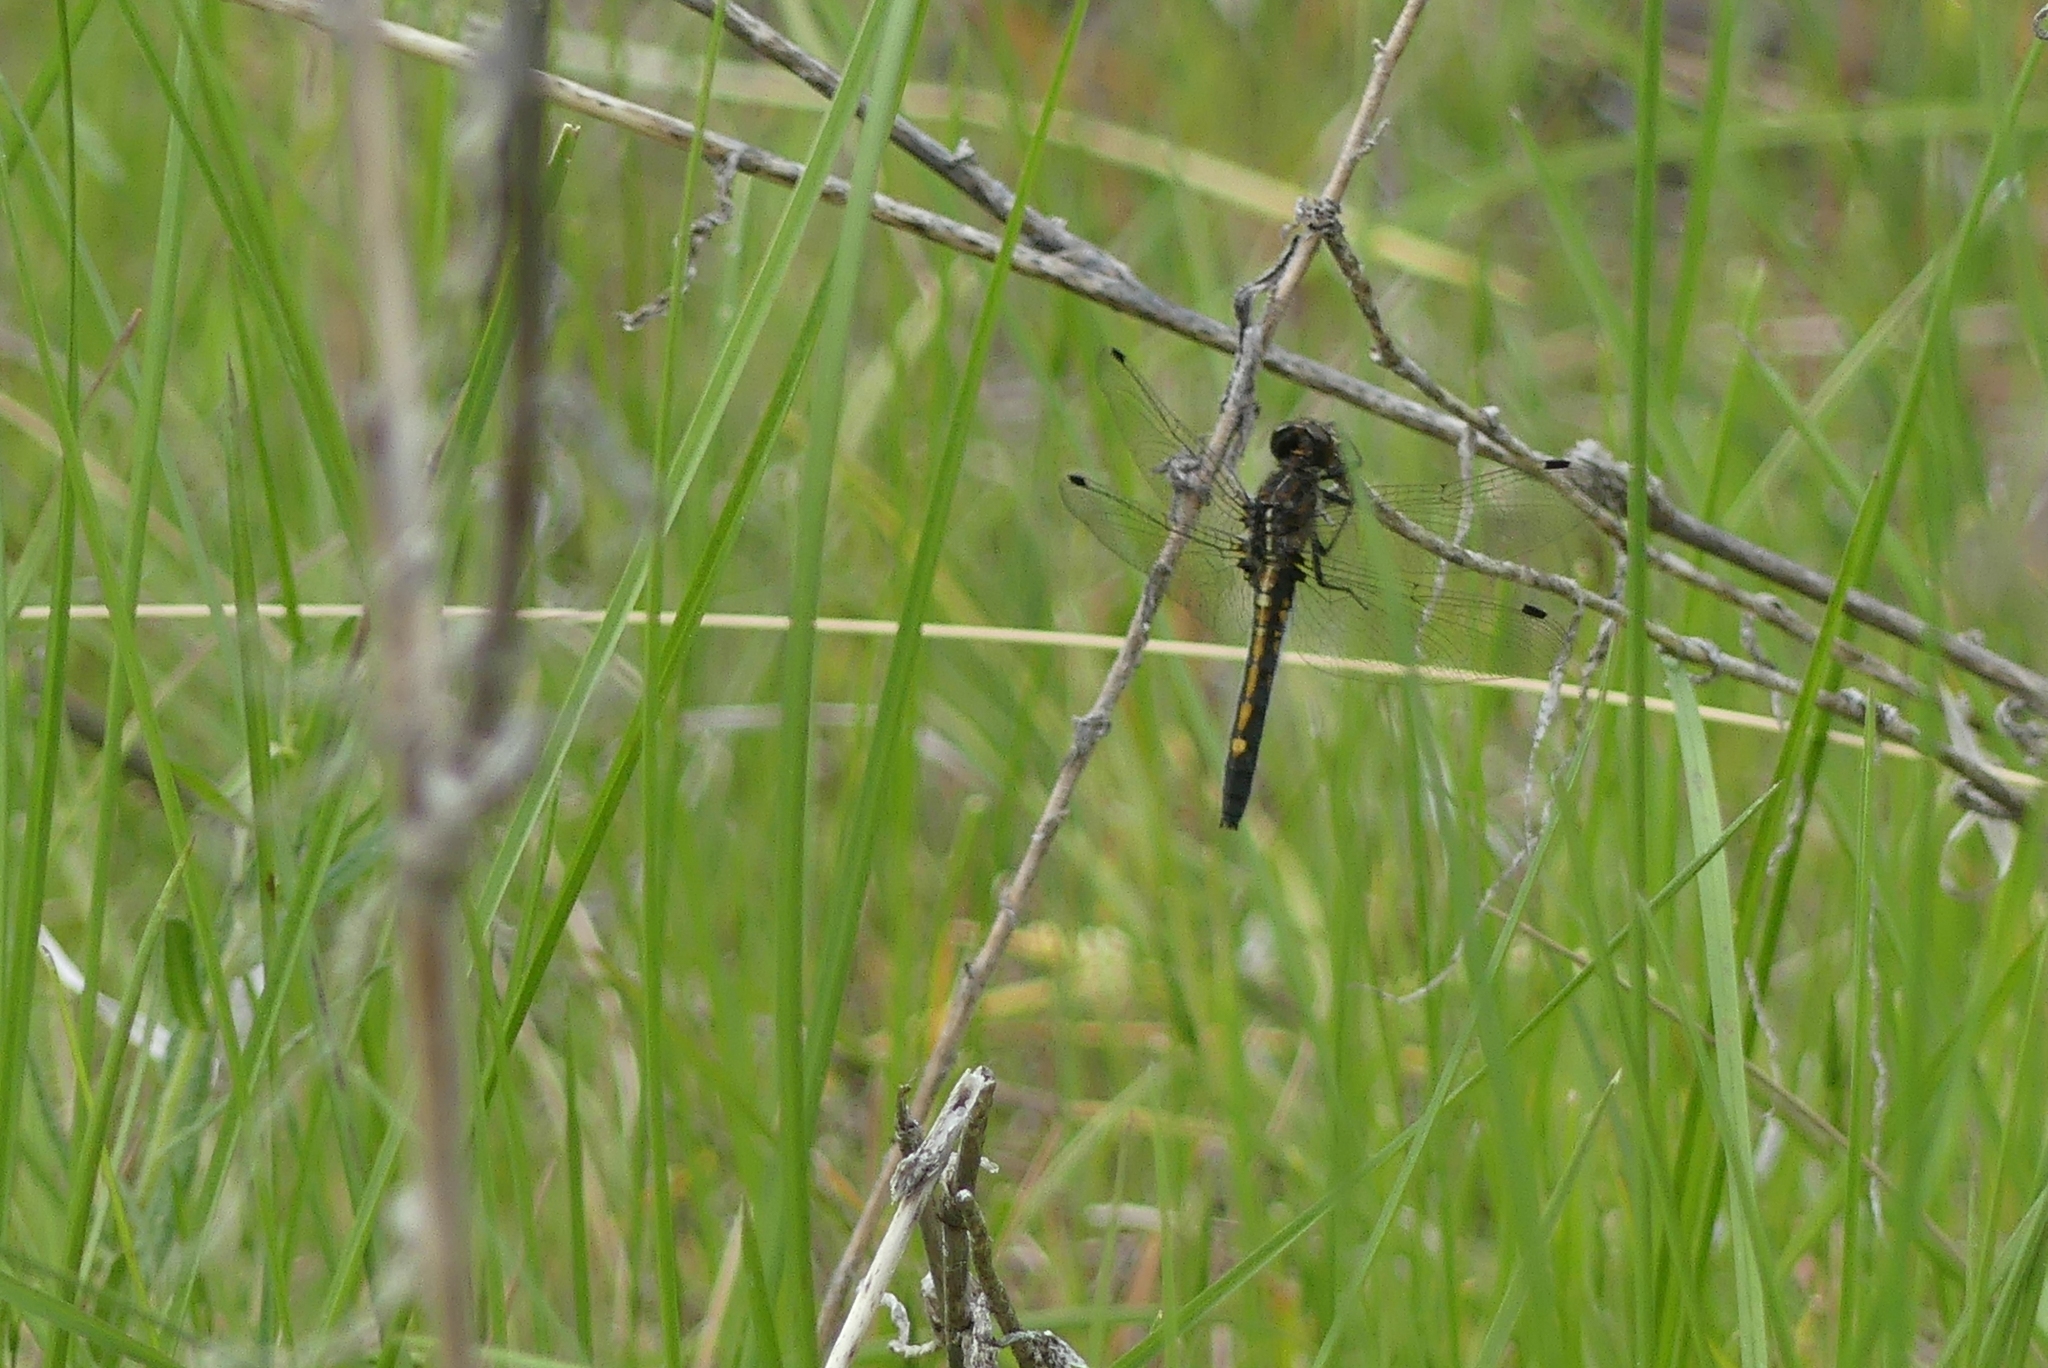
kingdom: Animalia
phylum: Arthropoda
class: Insecta
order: Odonata
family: Libellulidae
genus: Leucorrhinia
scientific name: Leucorrhinia intacta
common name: Dot-tailed whiteface
